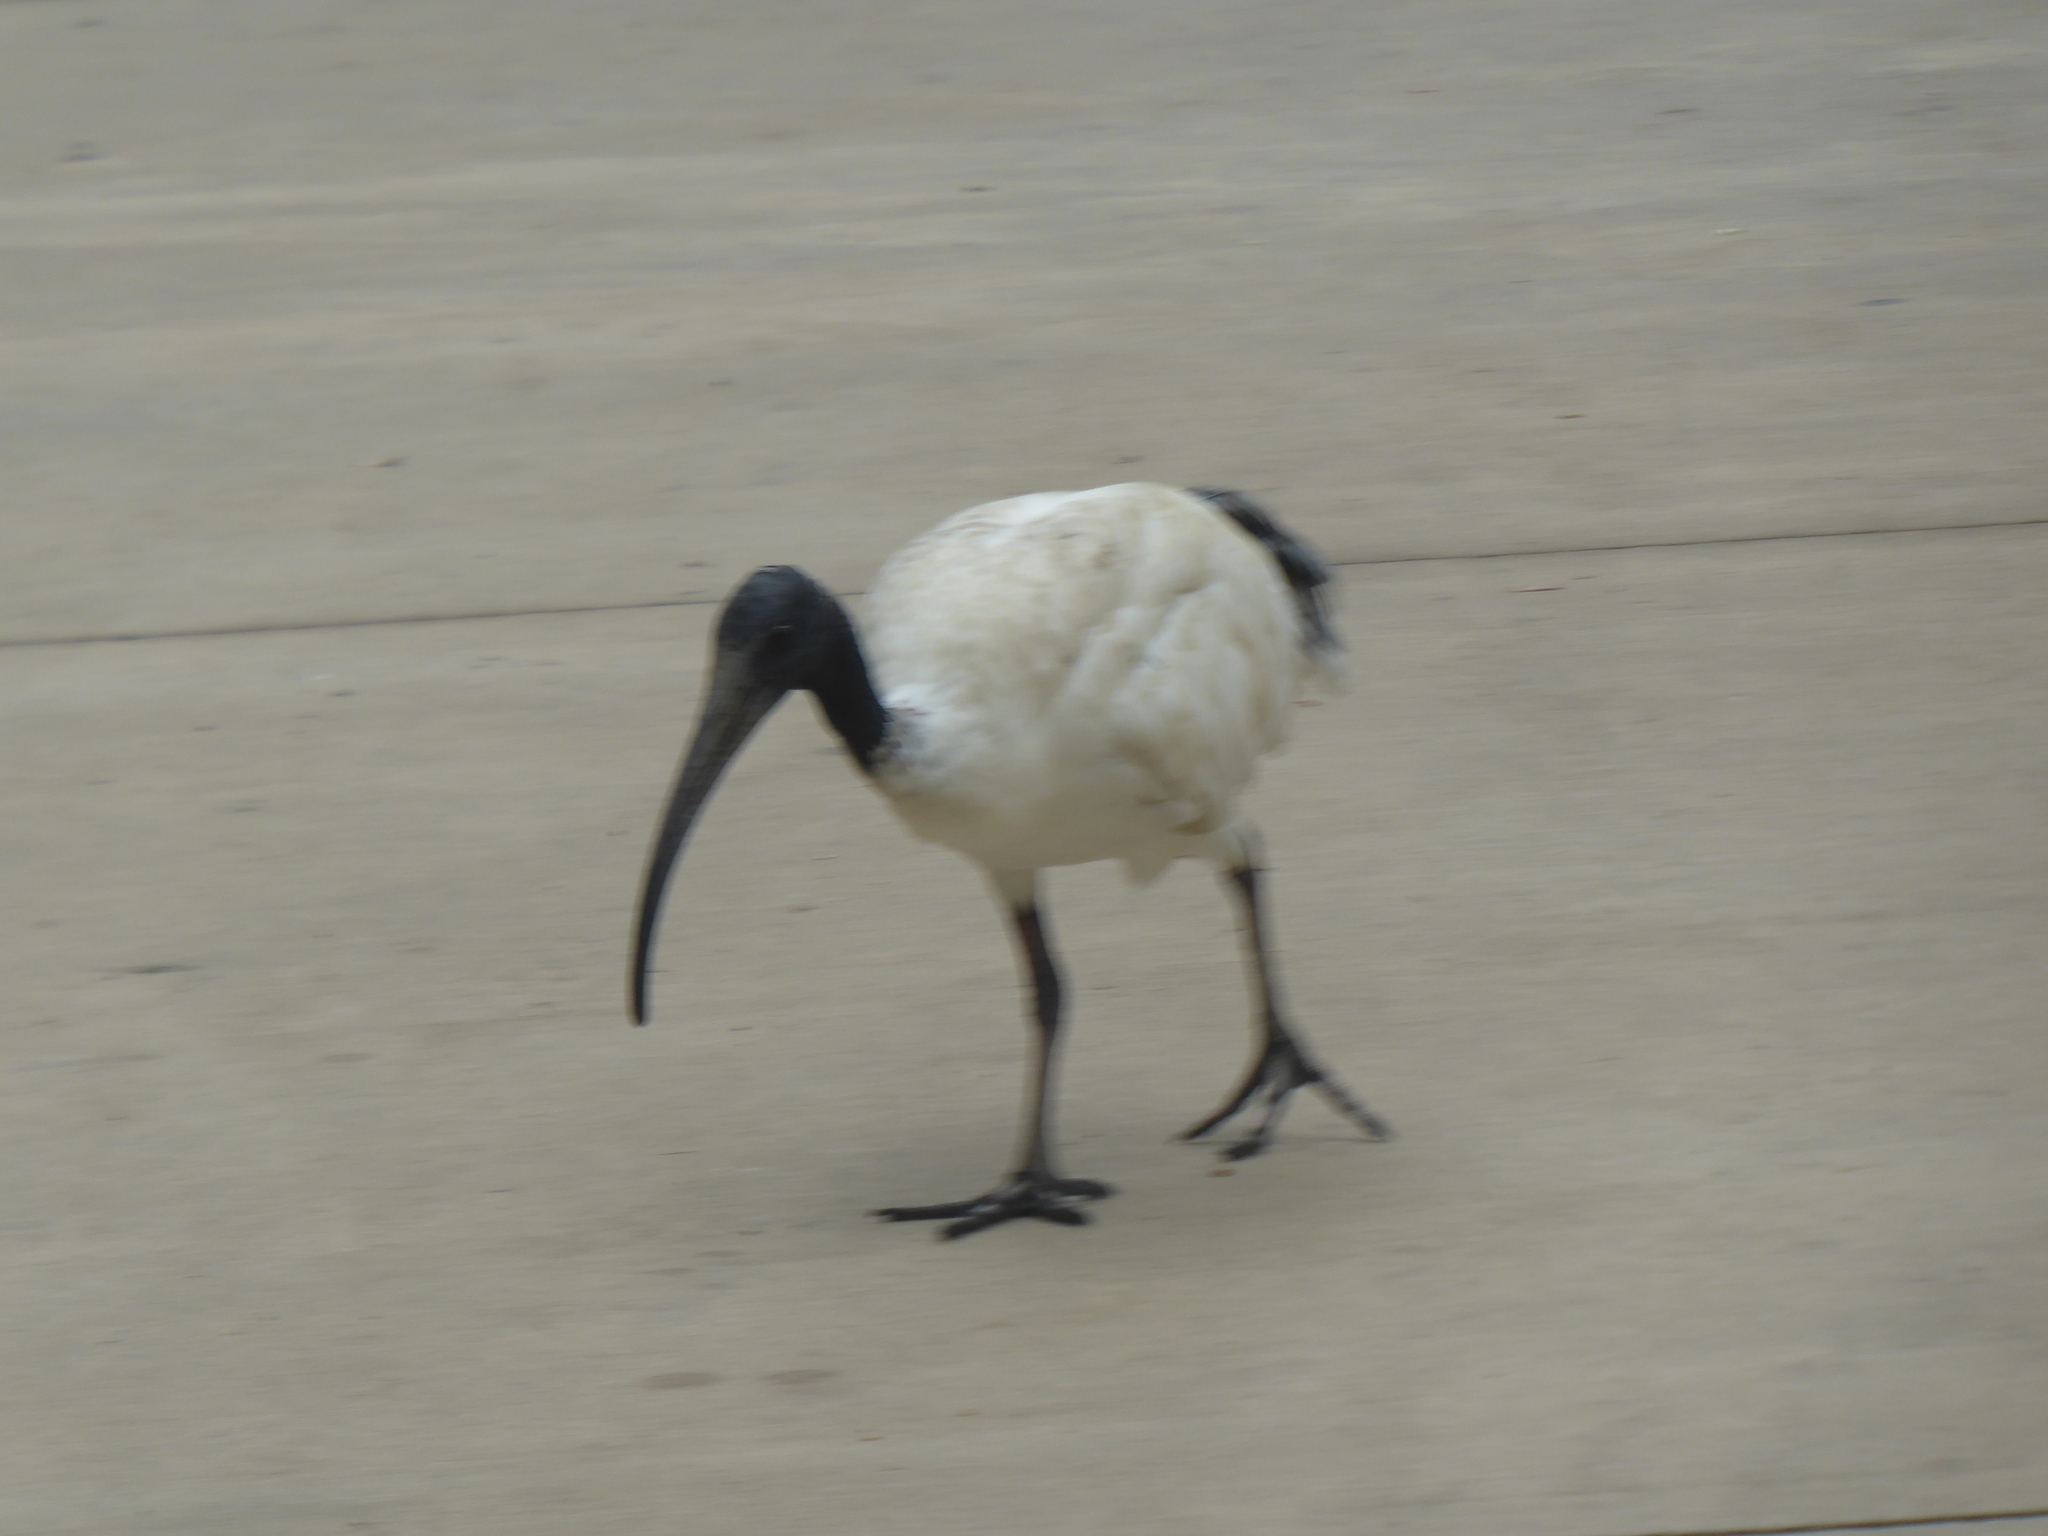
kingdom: Animalia
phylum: Chordata
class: Aves
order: Pelecaniformes
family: Threskiornithidae
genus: Threskiornis
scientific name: Threskiornis molucca
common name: Australian white ibis
